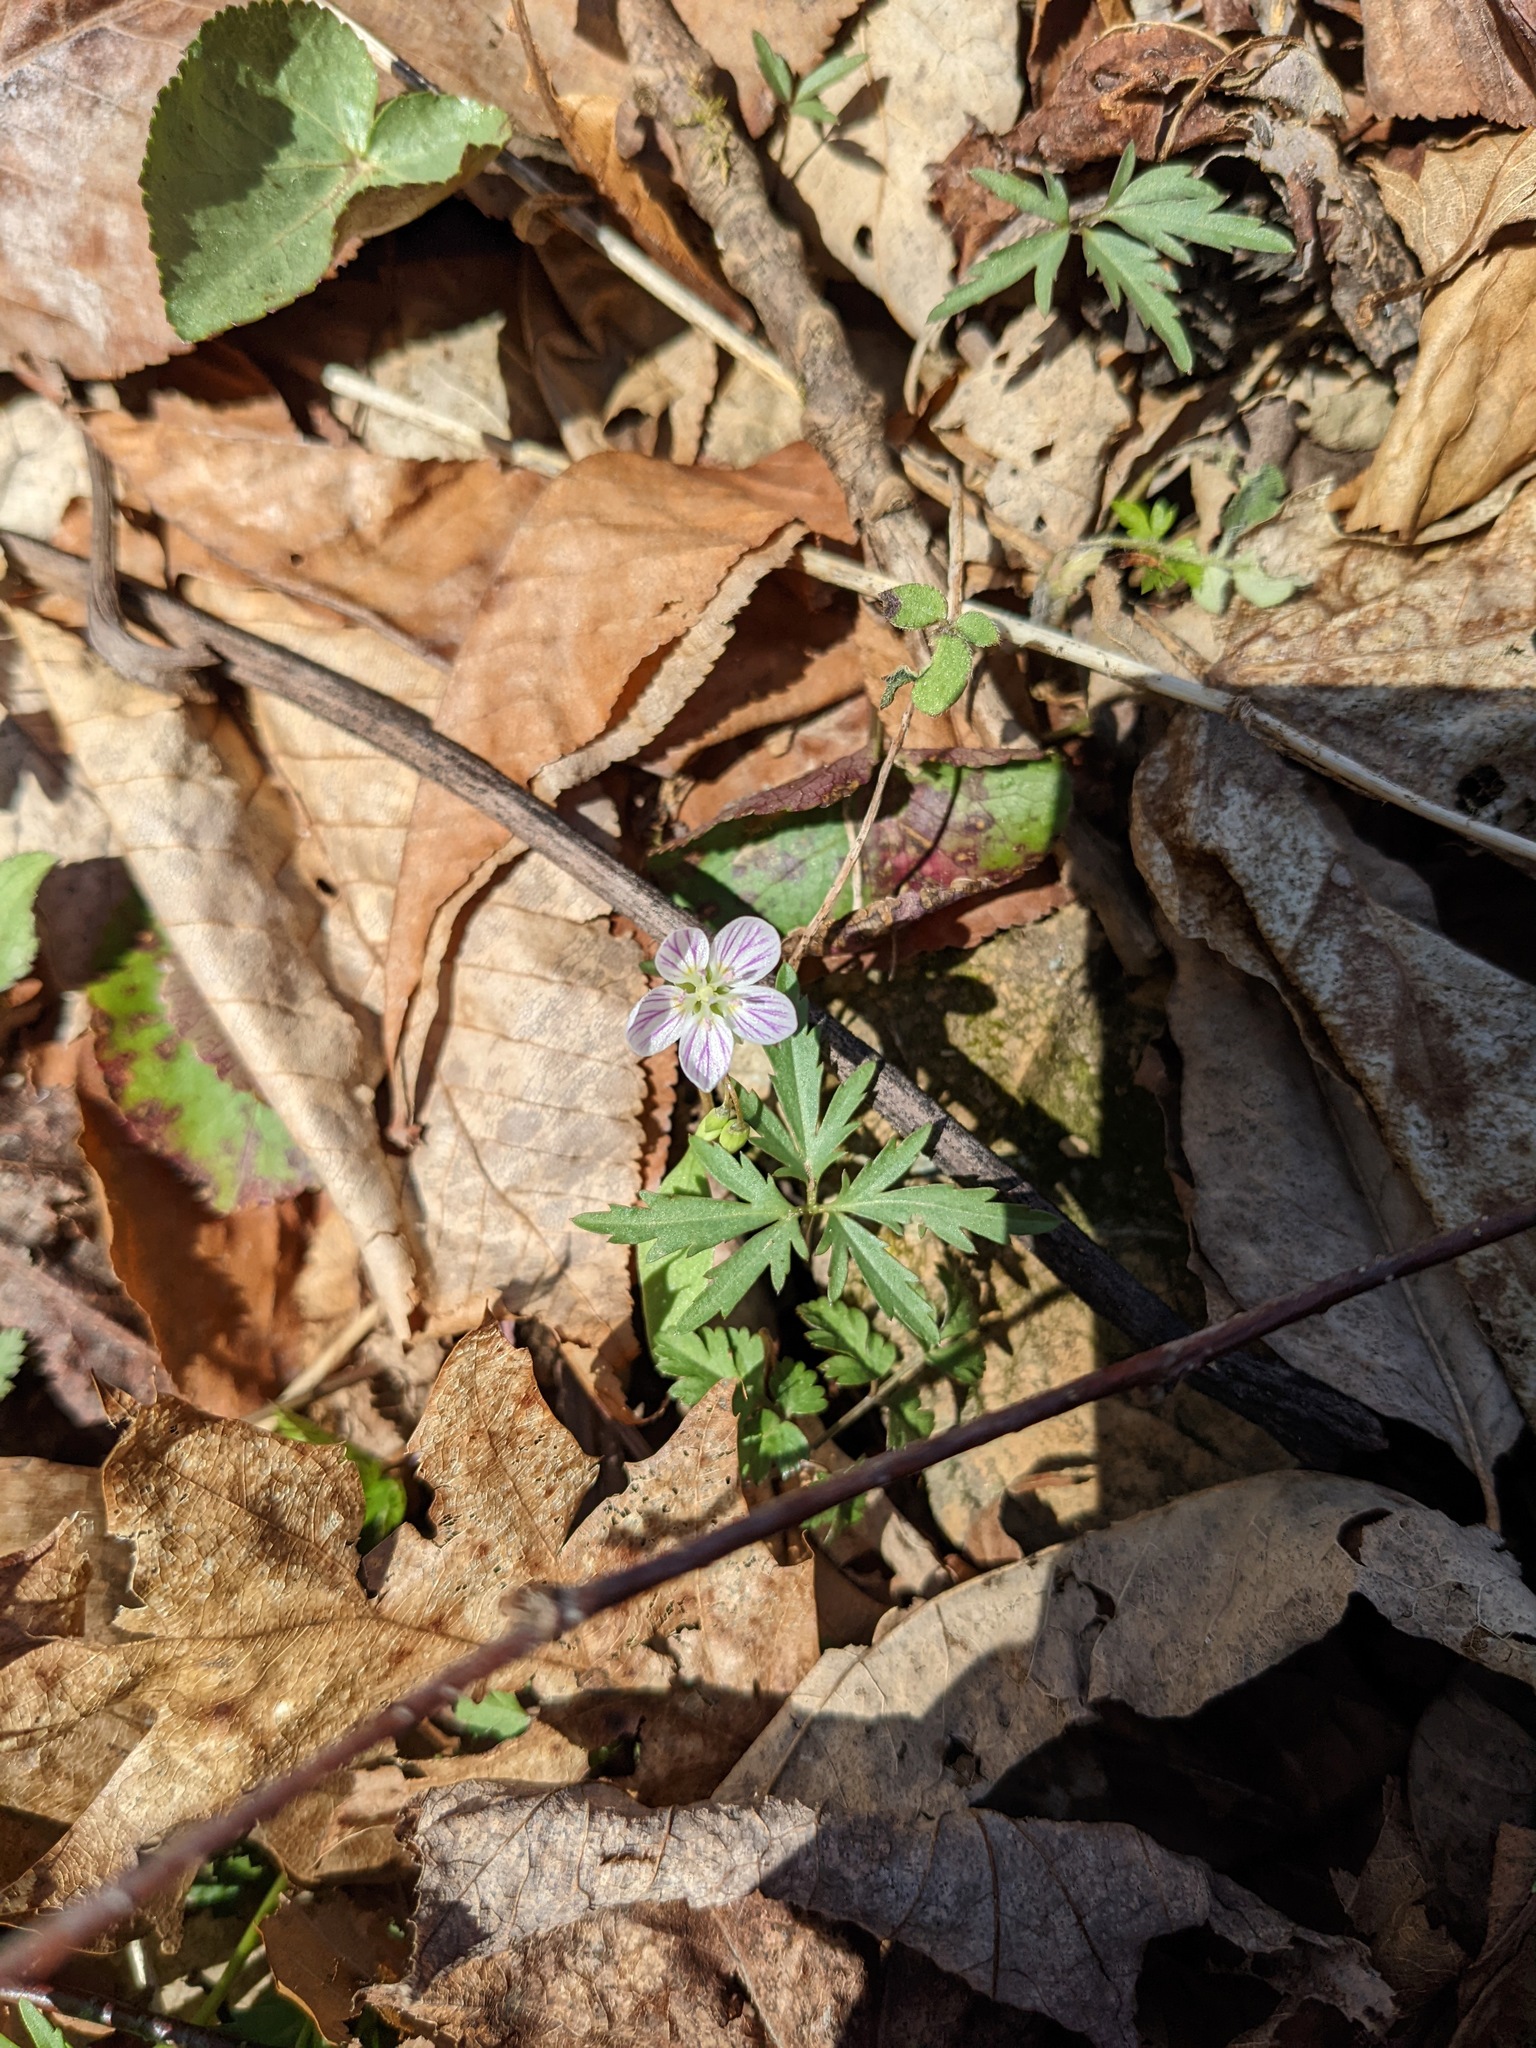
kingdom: Plantae
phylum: Tracheophyta
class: Magnoliopsida
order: Caryophyllales
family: Montiaceae
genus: Claytonia
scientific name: Claytonia caroliniana
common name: Carolina spring beauty
